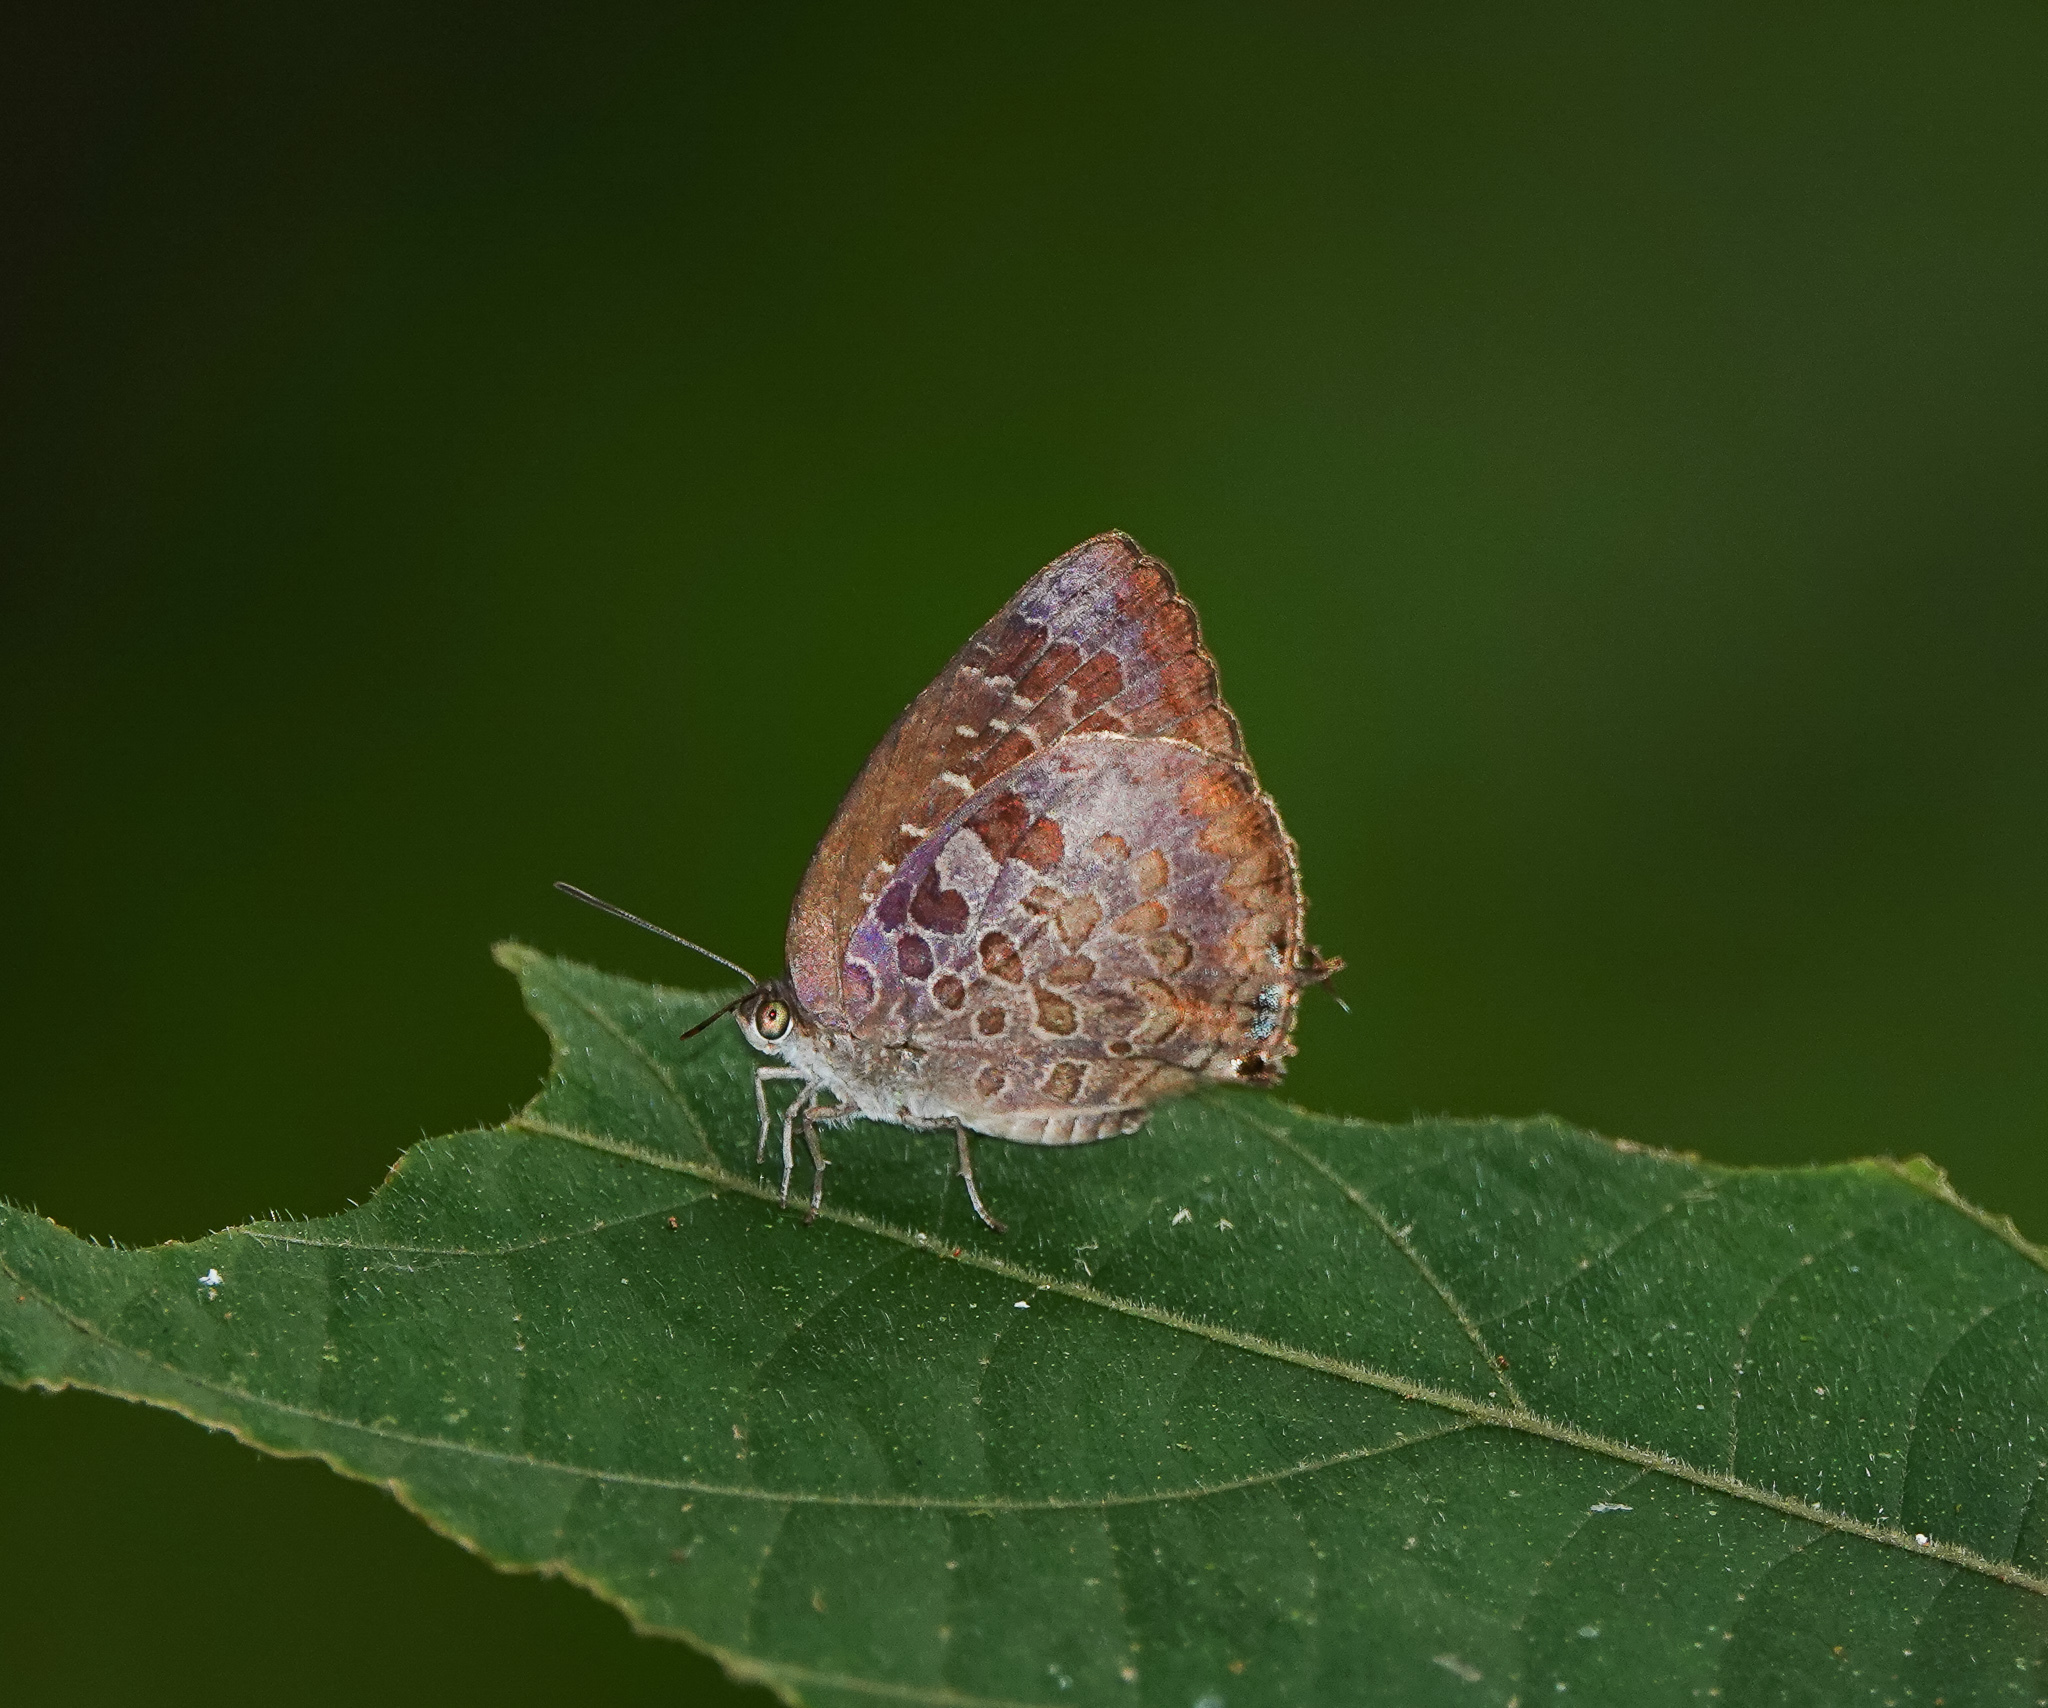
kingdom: Animalia
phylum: Arthropoda
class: Insecta
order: Lepidoptera
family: Lycaenidae
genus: Arhopala
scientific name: Arhopala bazaloides
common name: Tamil oakblue
